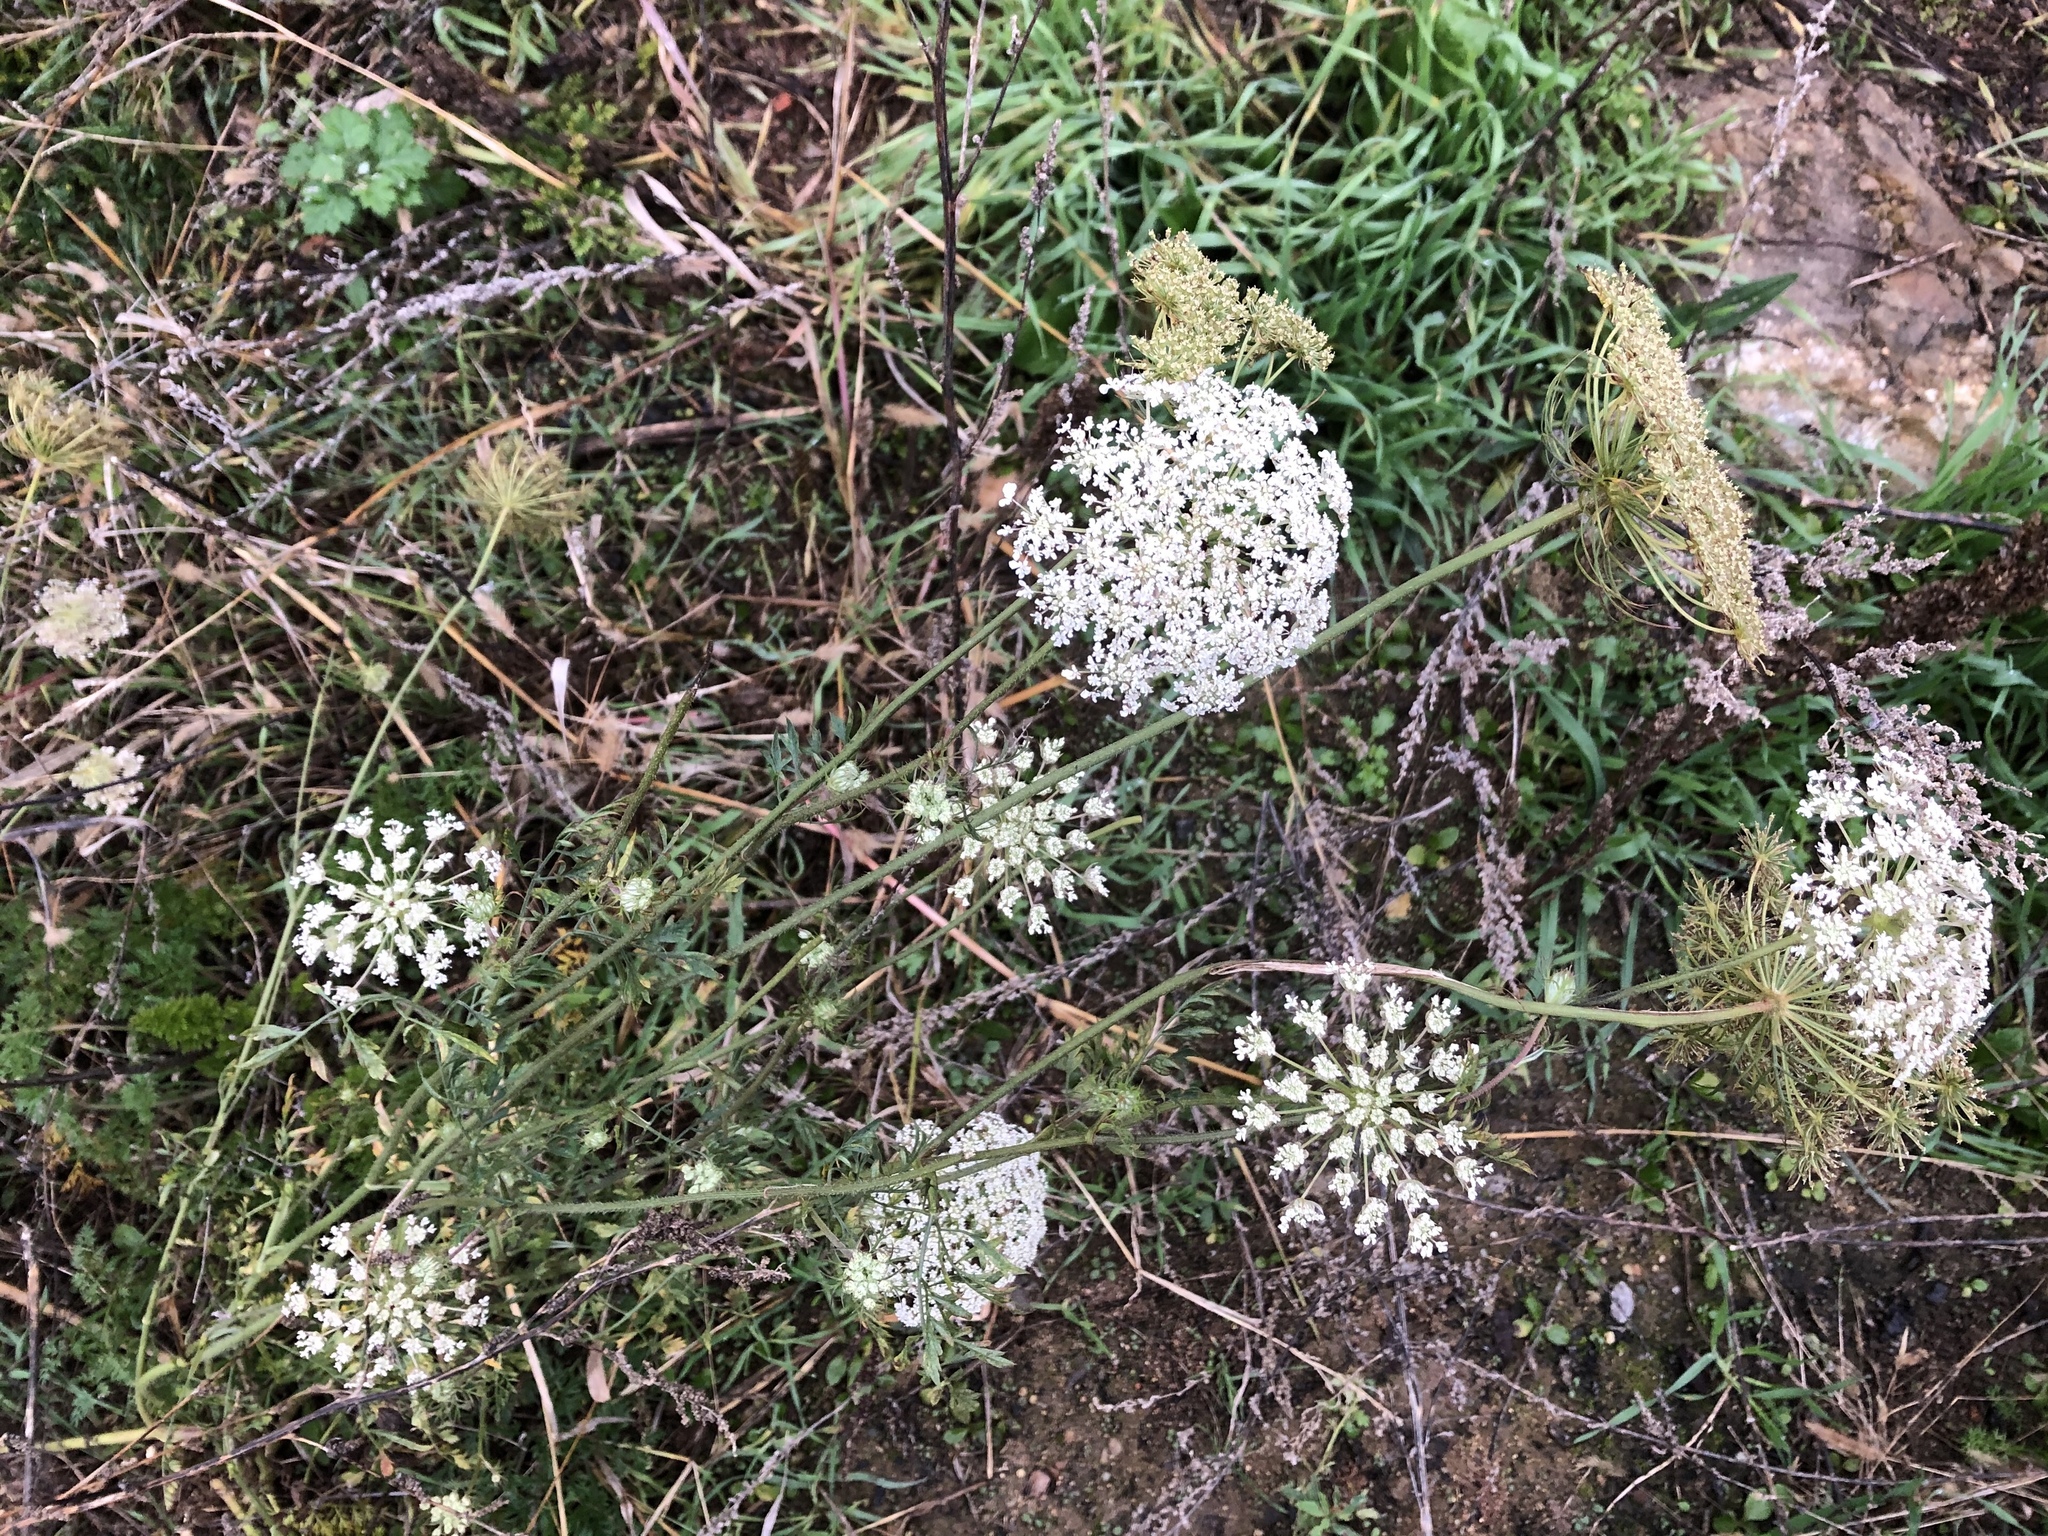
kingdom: Plantae
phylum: Tracheophyta
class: Magnoliopsida
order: Apiales
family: Apiaceae
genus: Daucus
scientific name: Daucus carota
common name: Wild carrot
